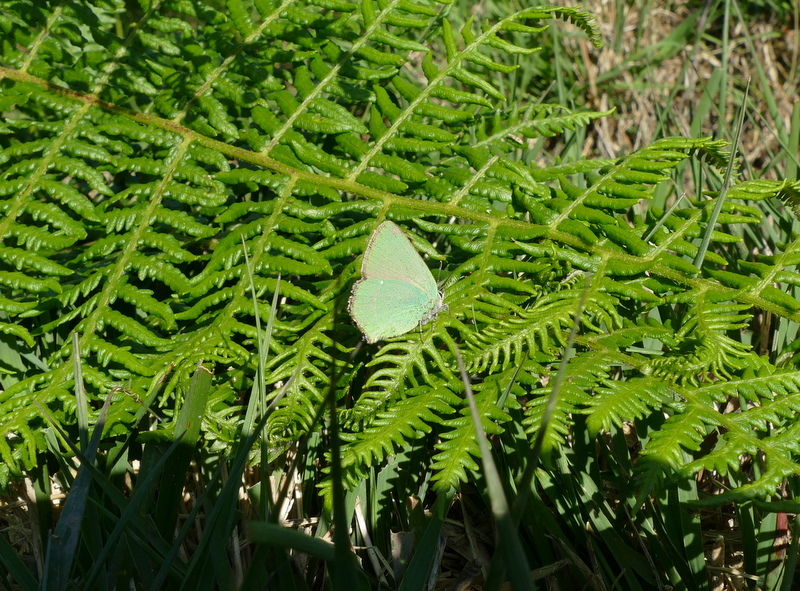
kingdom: Animalia
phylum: Arthropoda
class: Insecta
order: Lepidoptera
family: Lycaenidae
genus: Callophrys
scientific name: Callophrys rubi
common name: Green hairstreak
